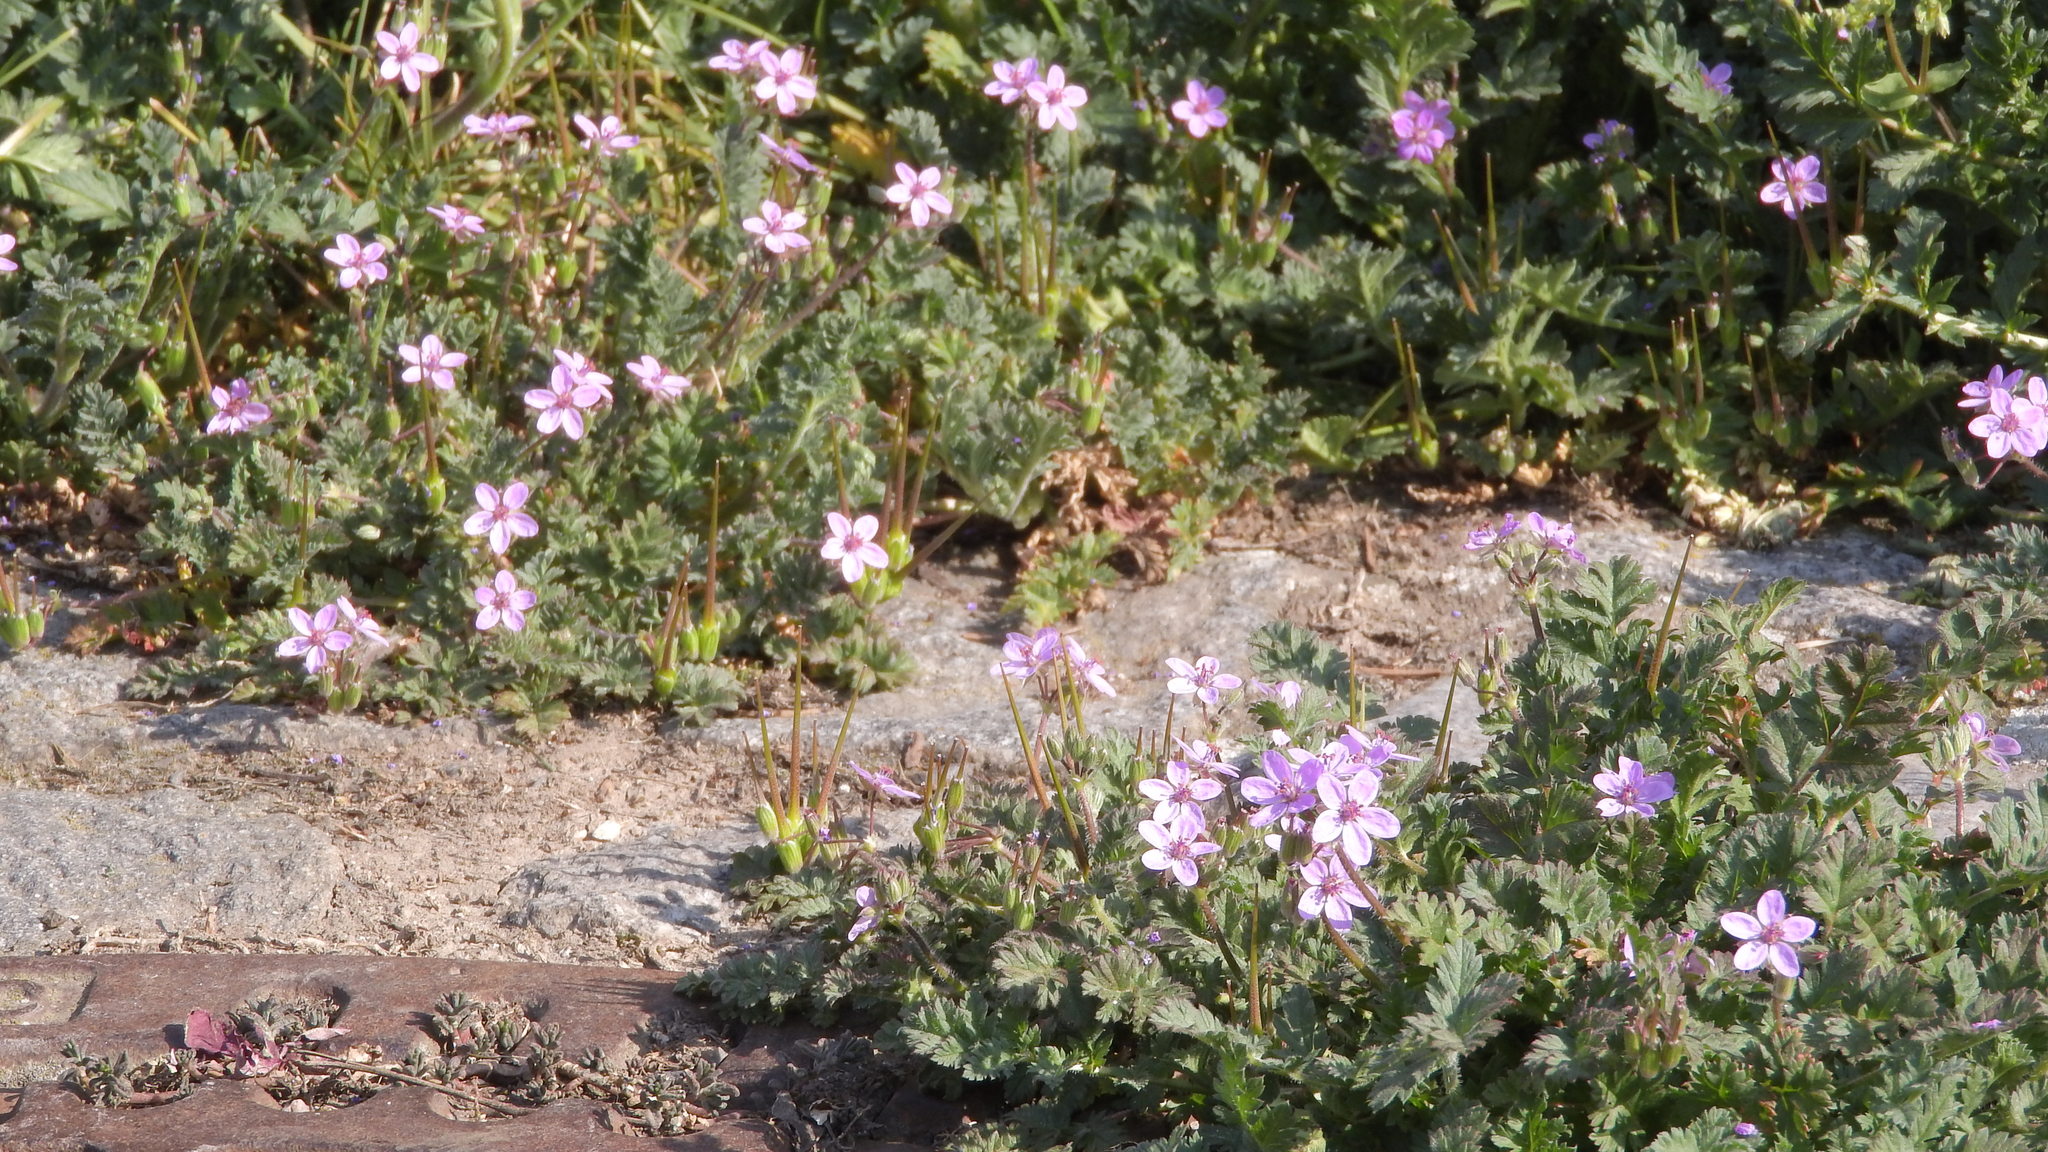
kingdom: Plantae
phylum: Tracheophyta
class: Magnoliopsida
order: Geraniales
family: Geraniaceae
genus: Erodium
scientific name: Erodium cicutarium
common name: Common stork's-bill
